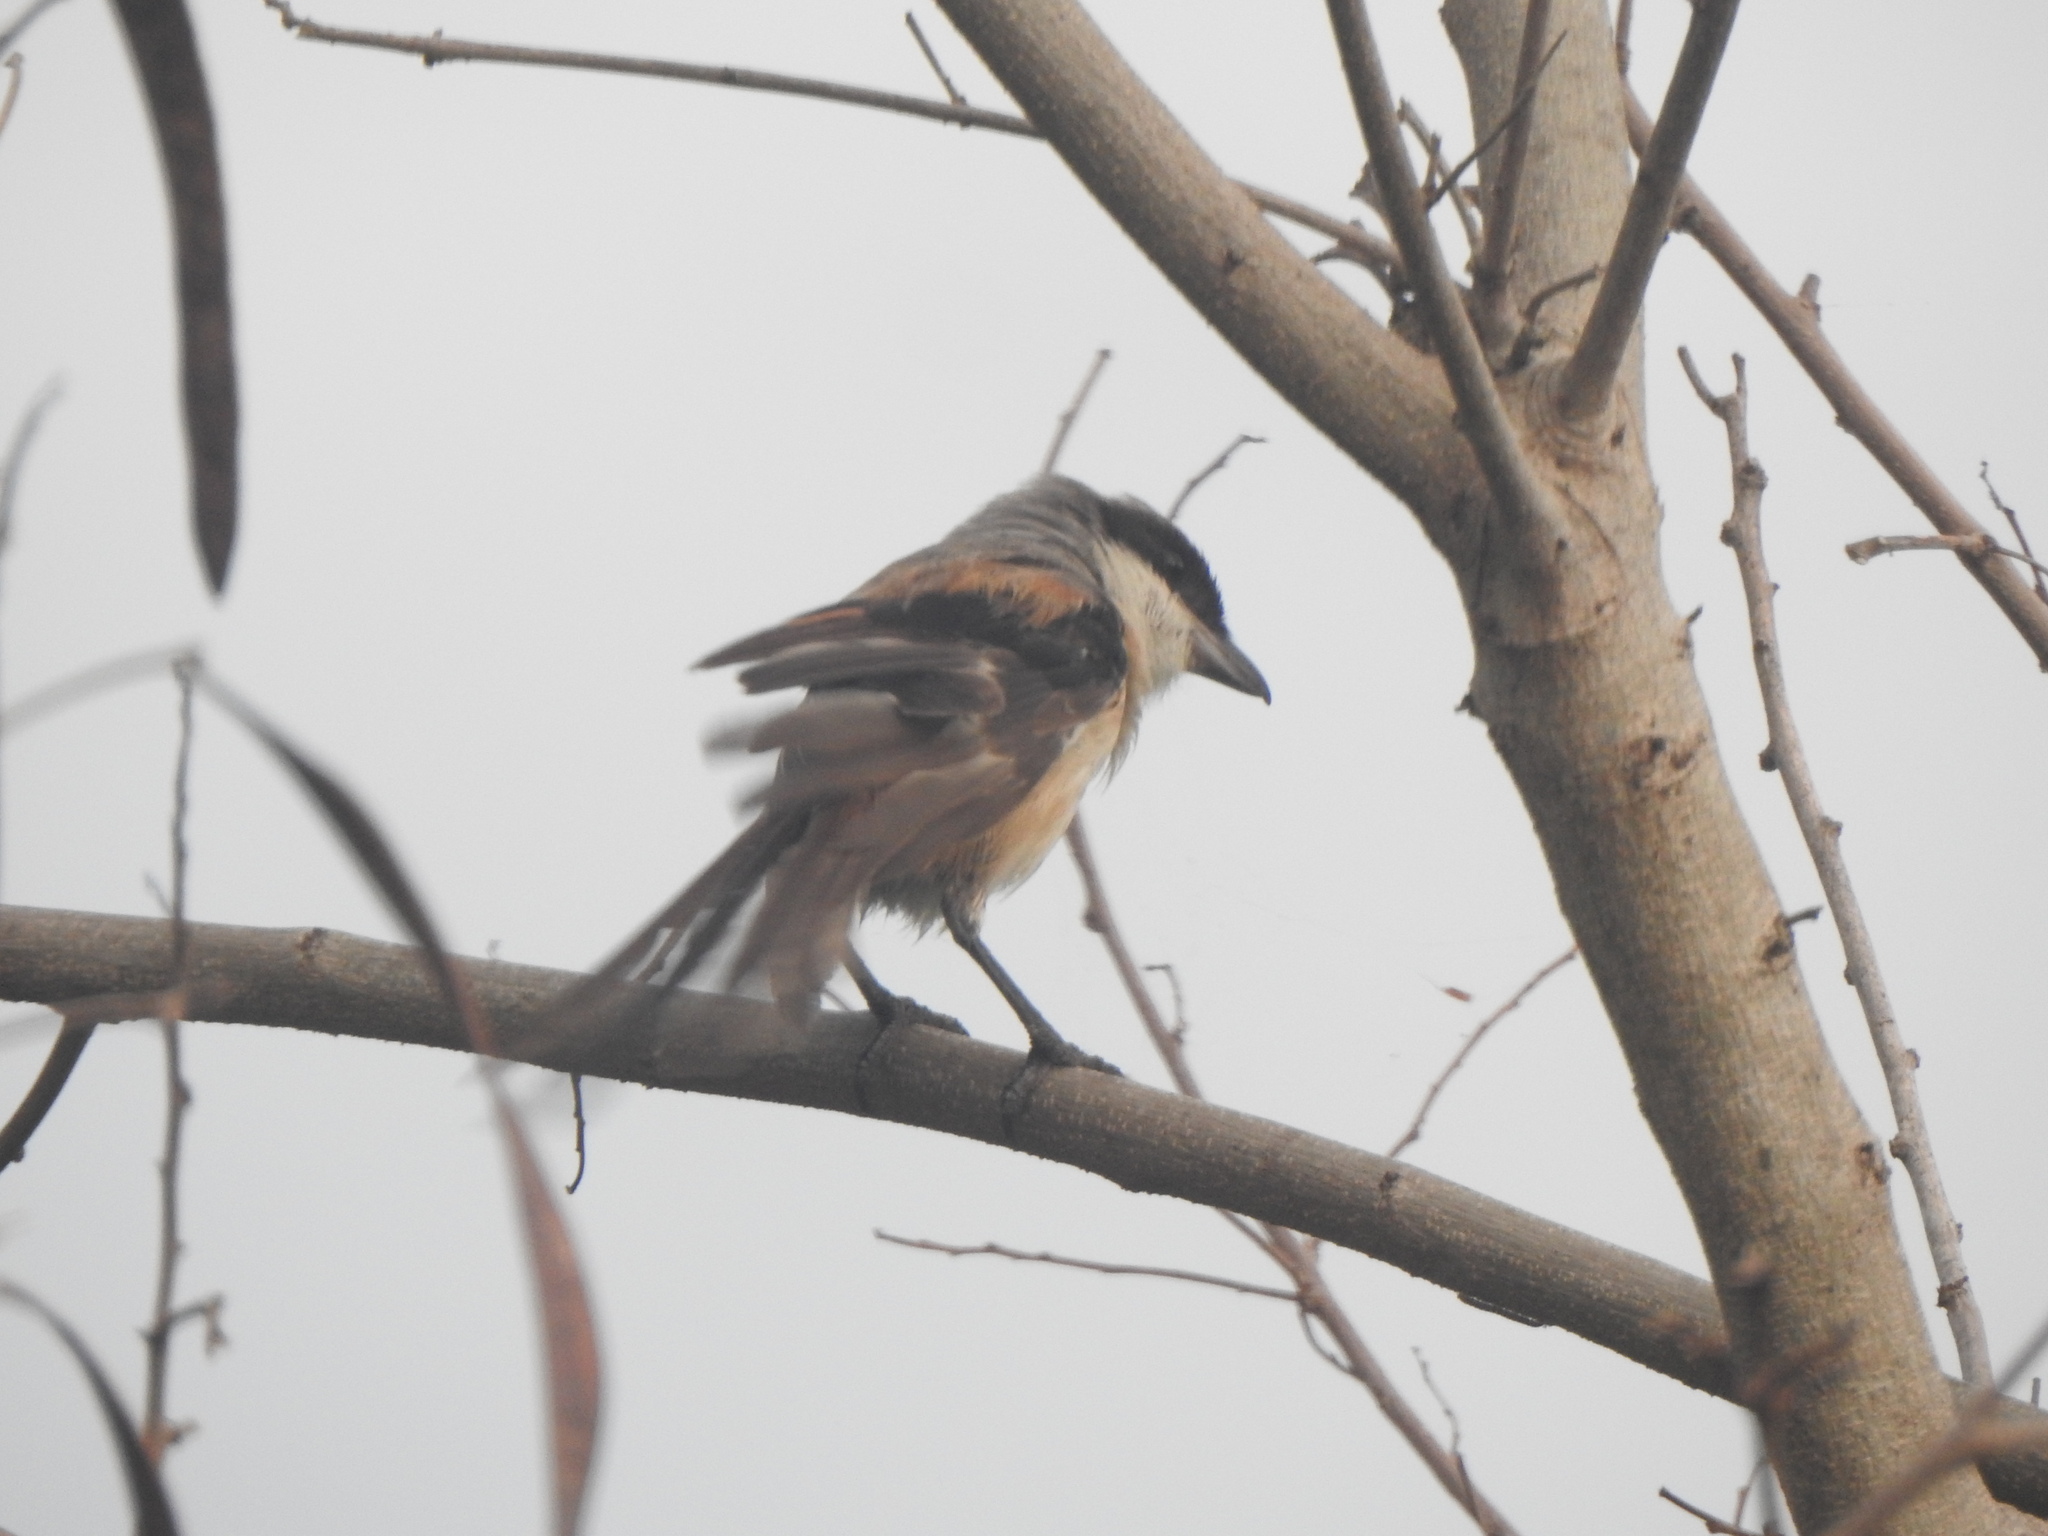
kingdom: Animalia
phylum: Chordata
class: Aves
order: Passeriformes
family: Laniidae
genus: Lanius
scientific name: Lanius schach
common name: Long-tailed shrike
